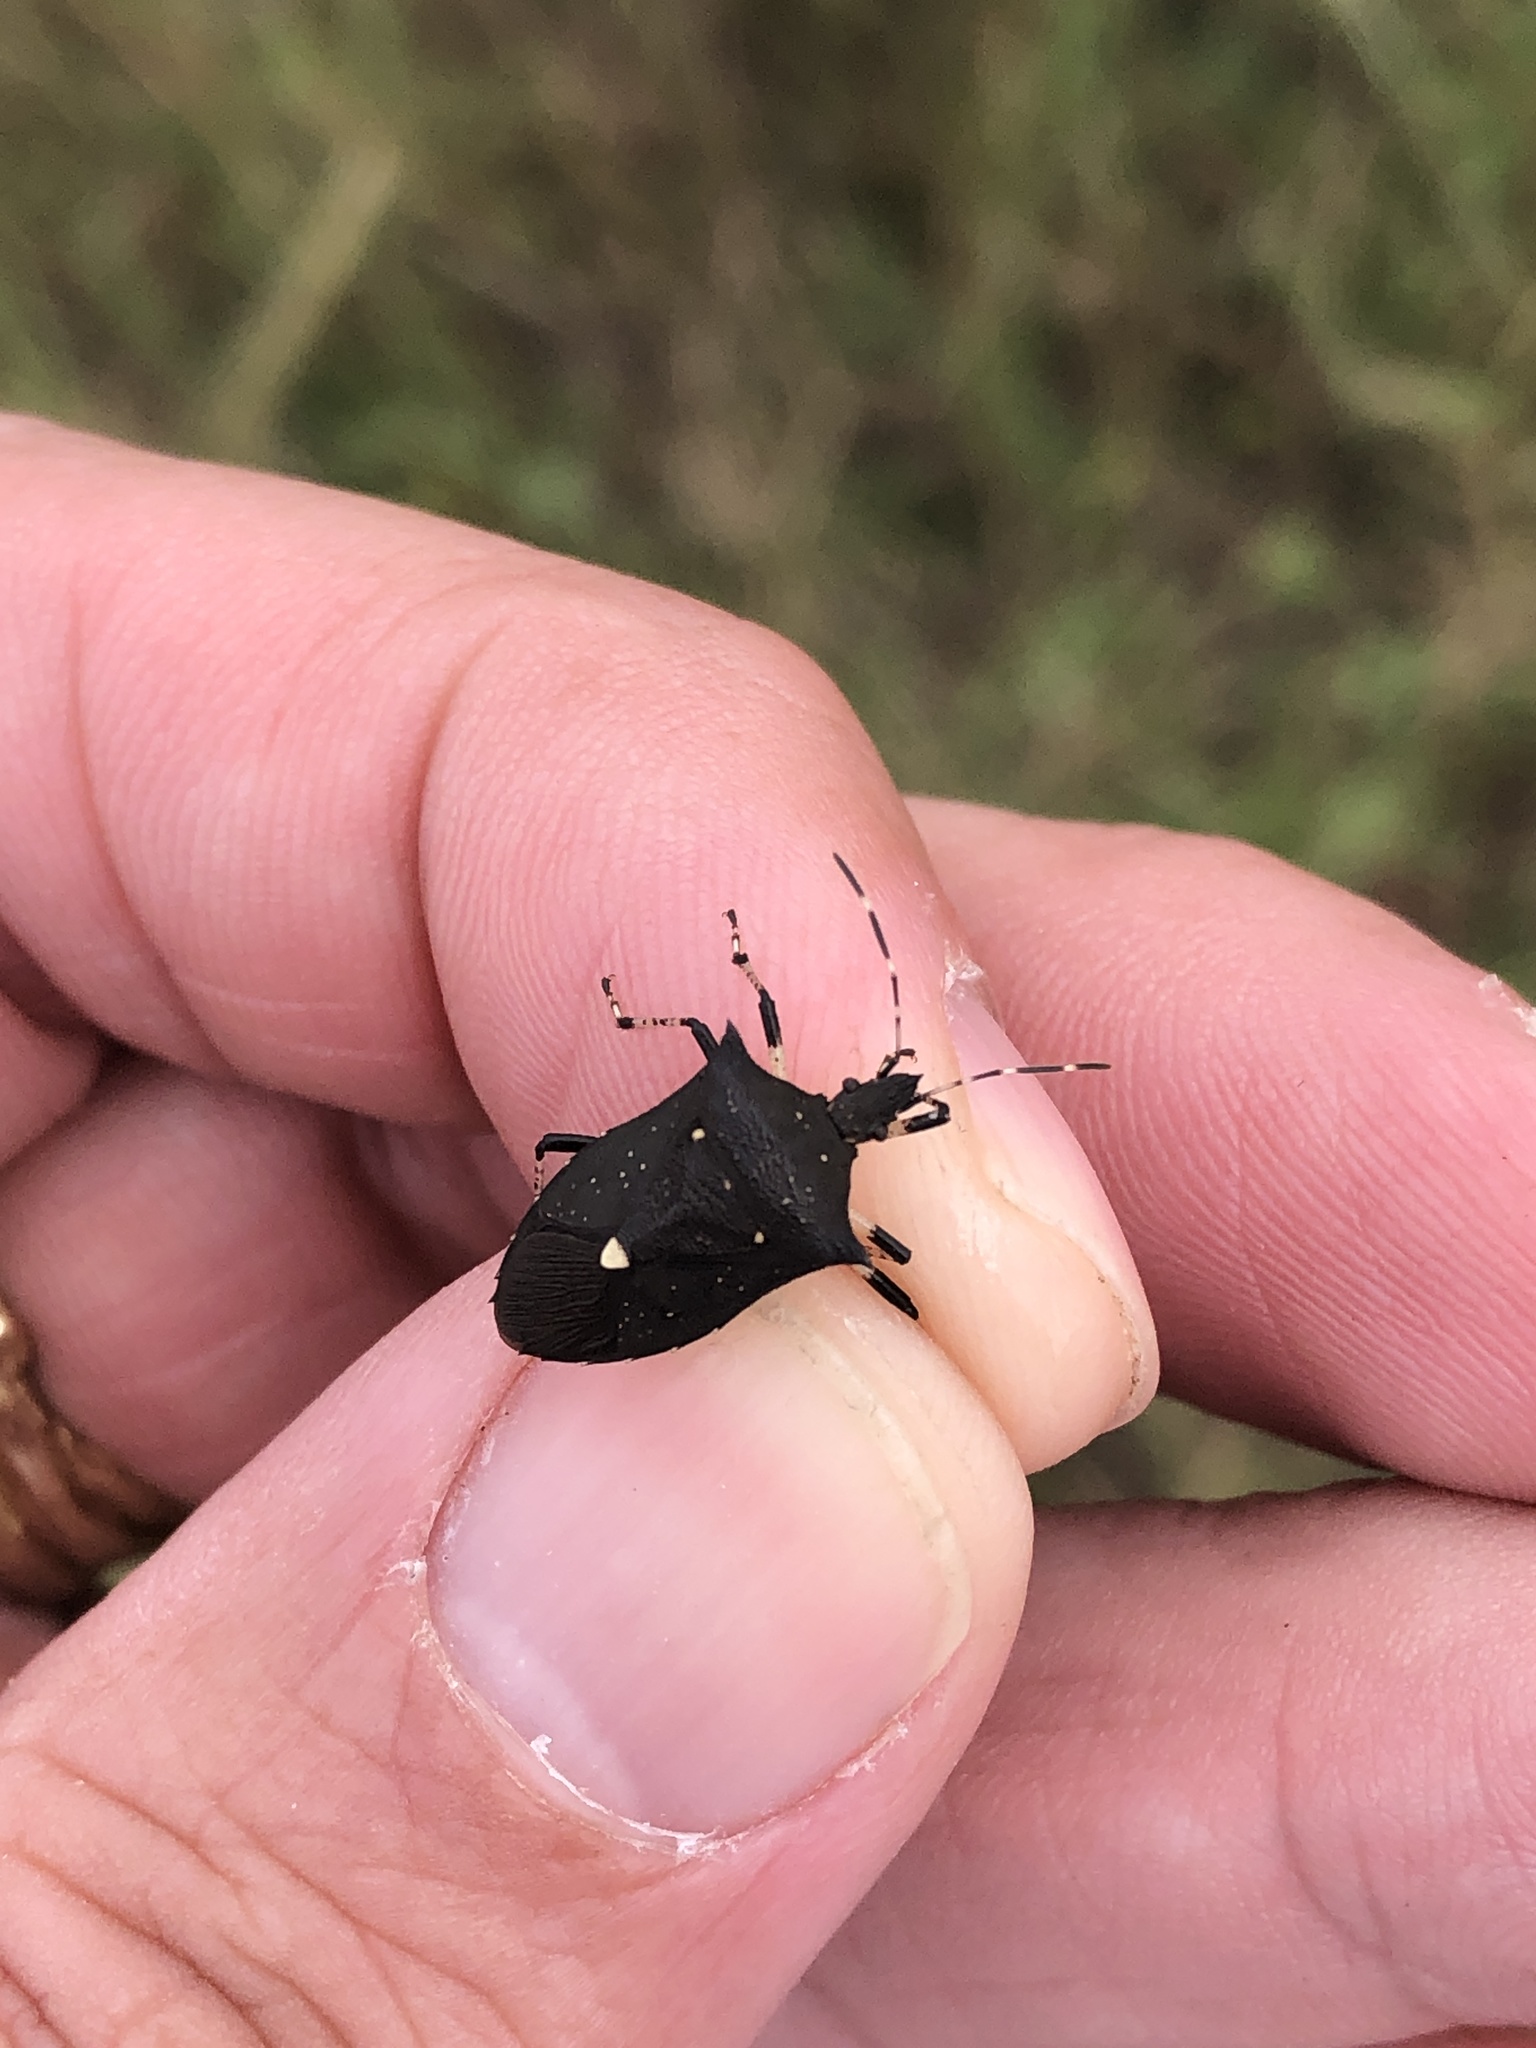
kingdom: Animalia
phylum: Arthropoda
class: Insecta
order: Hemiptera
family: Pentatomidae
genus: Proxys
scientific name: Proxys punctulatus
